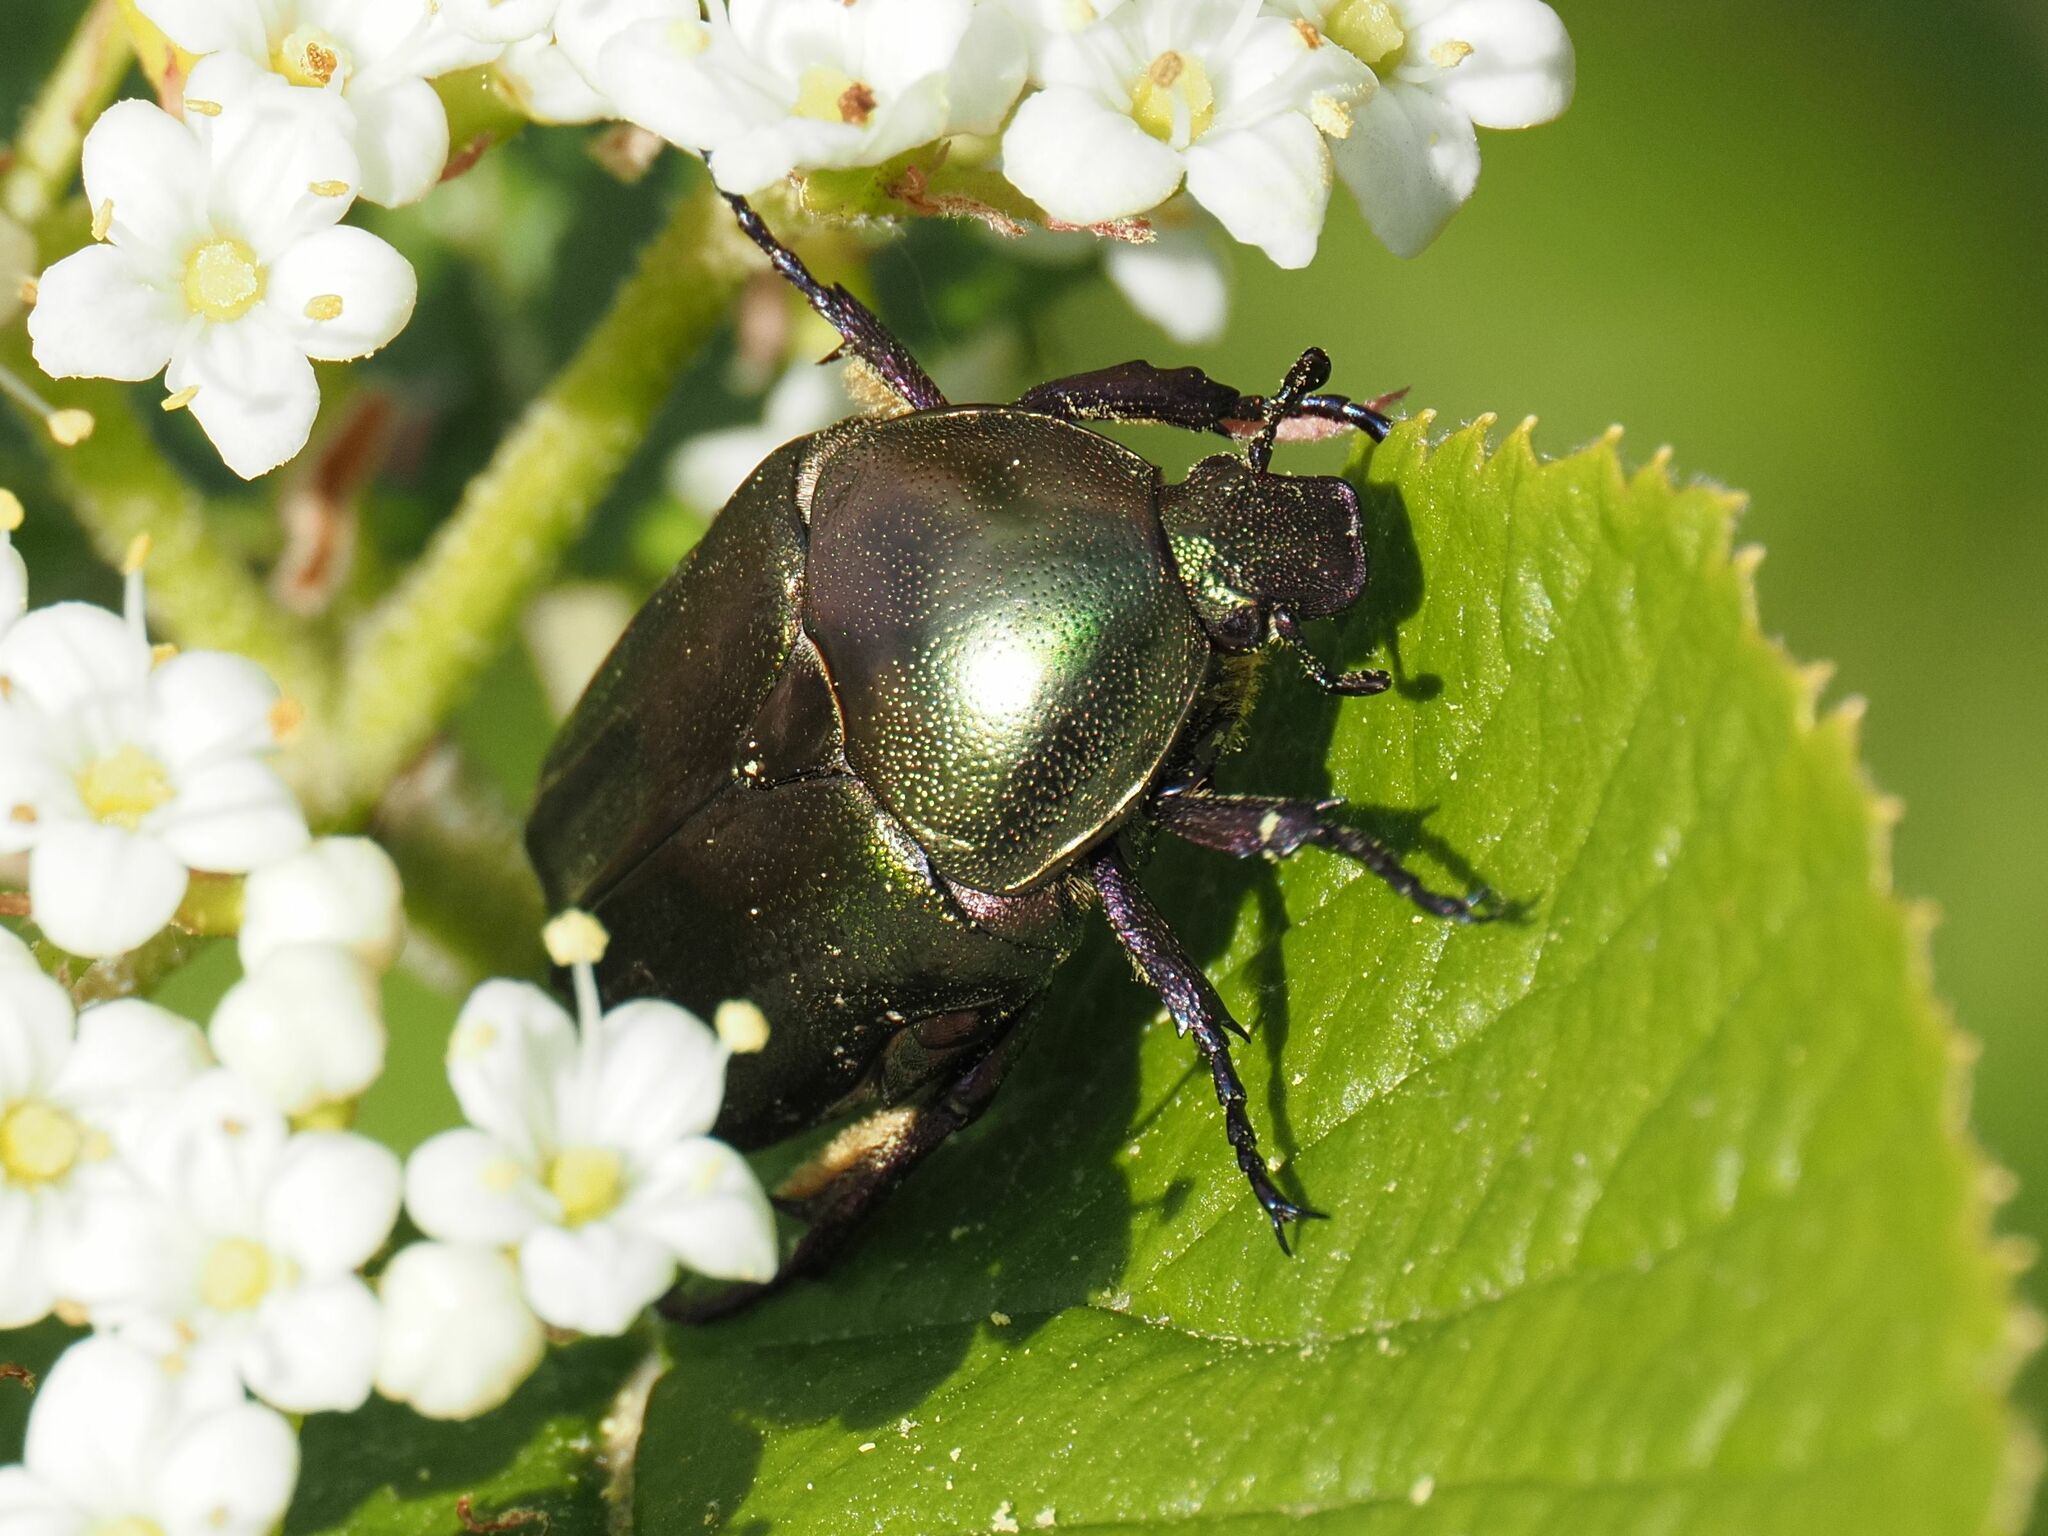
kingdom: Animalia
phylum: Arthropoda
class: Insecta
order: Coleoptera
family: Scarabaeidae
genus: Protaetia
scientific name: Protaetia cuprea
